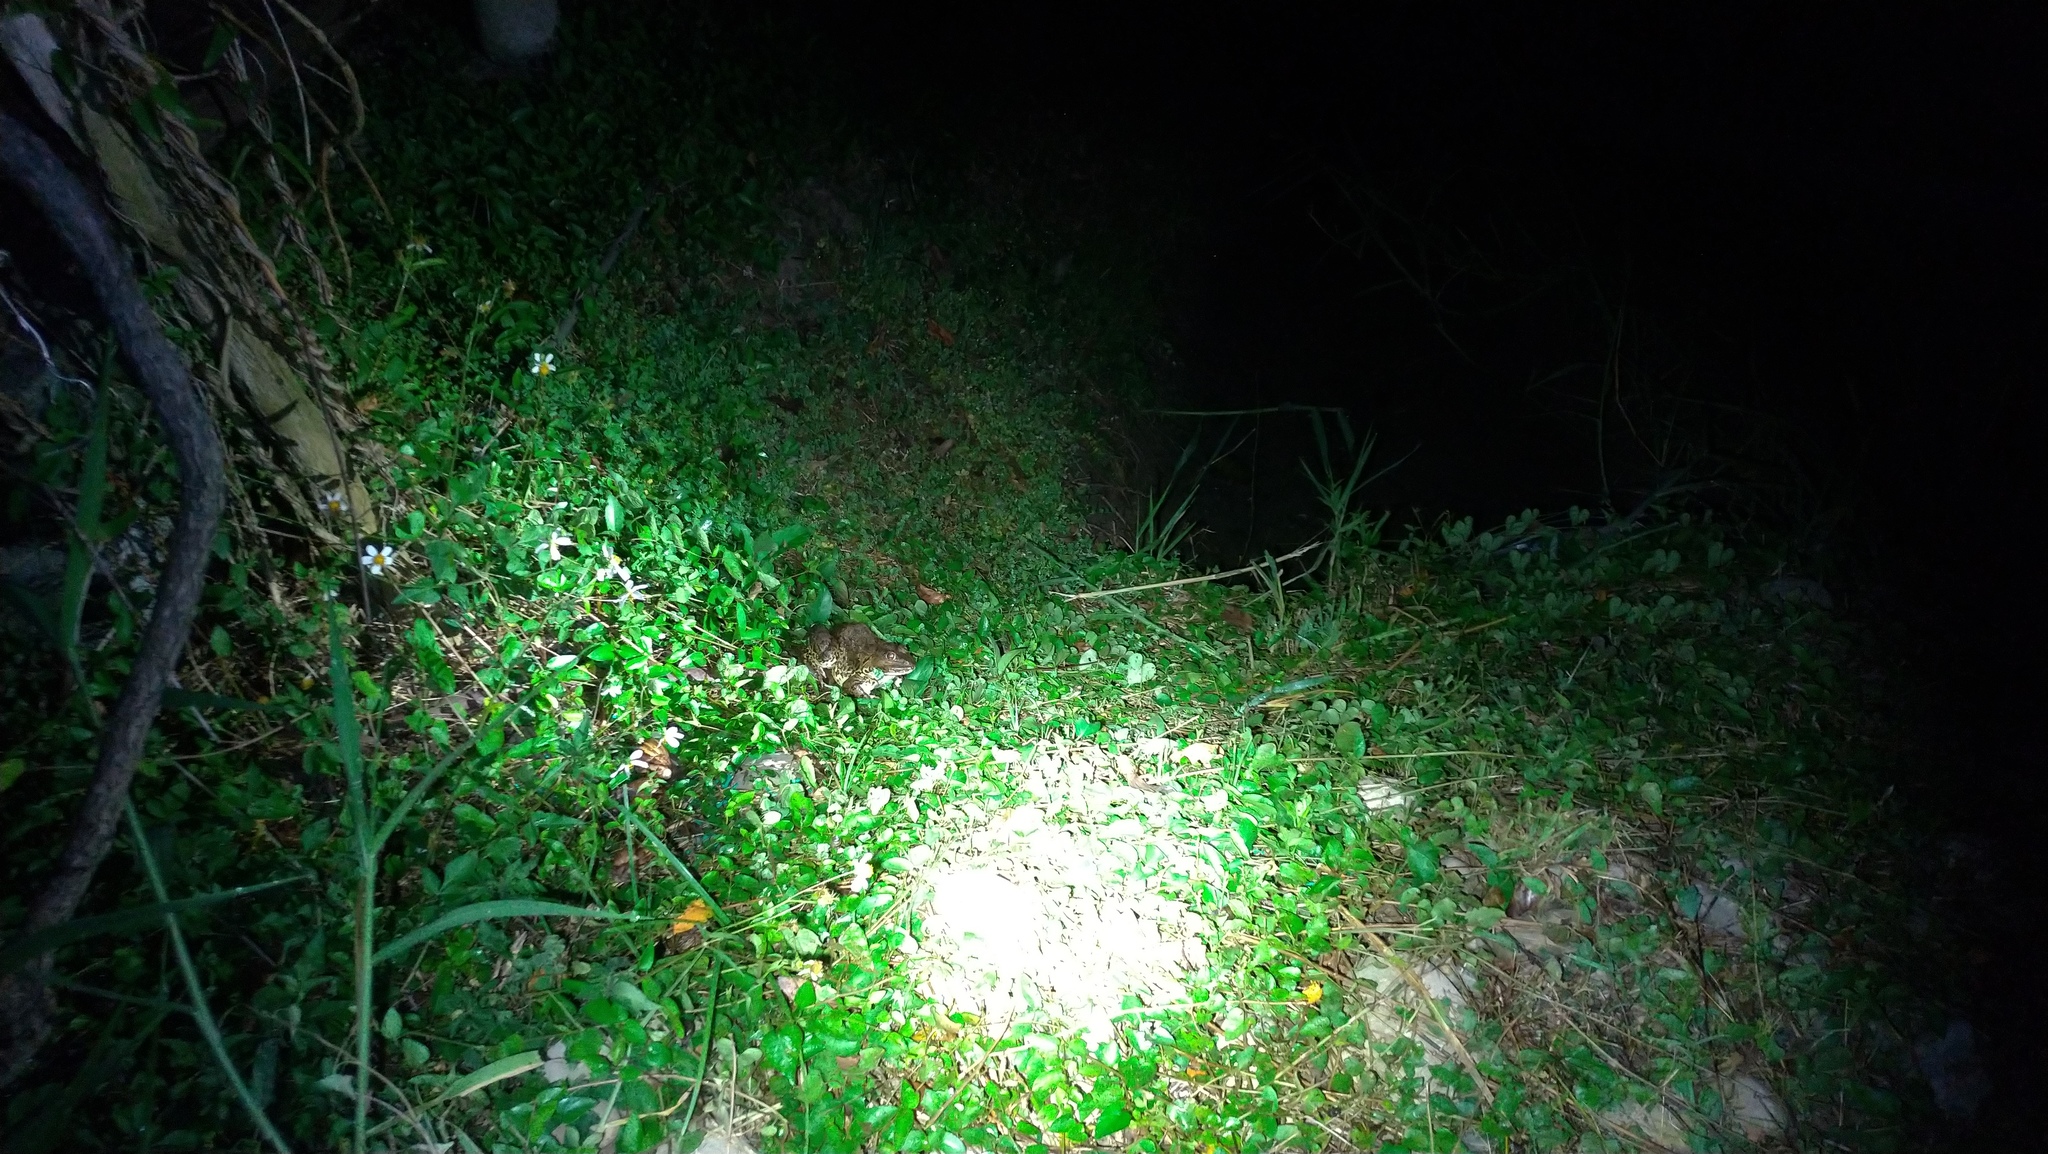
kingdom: Animalia
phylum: Chordata
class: Amphibia
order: Anura
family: Dicroglossidae
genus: Hoplobatrachus
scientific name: Hoplobatrachus rugulosus
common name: Chinese edible frog
